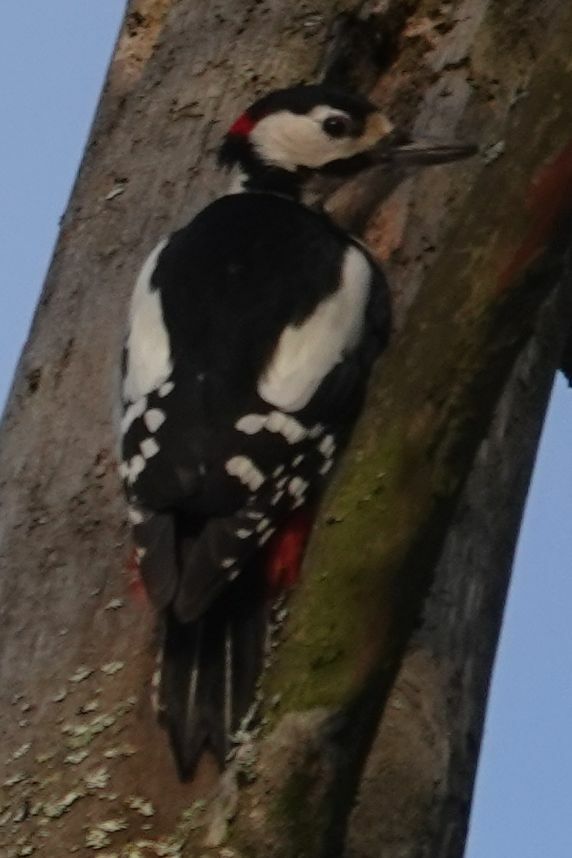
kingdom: Animalia
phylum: Chordata
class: Aves
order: Piciformes
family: Picidae
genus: Dendrocopos
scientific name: Dendrocopos major
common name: Great spotted woodpecker
